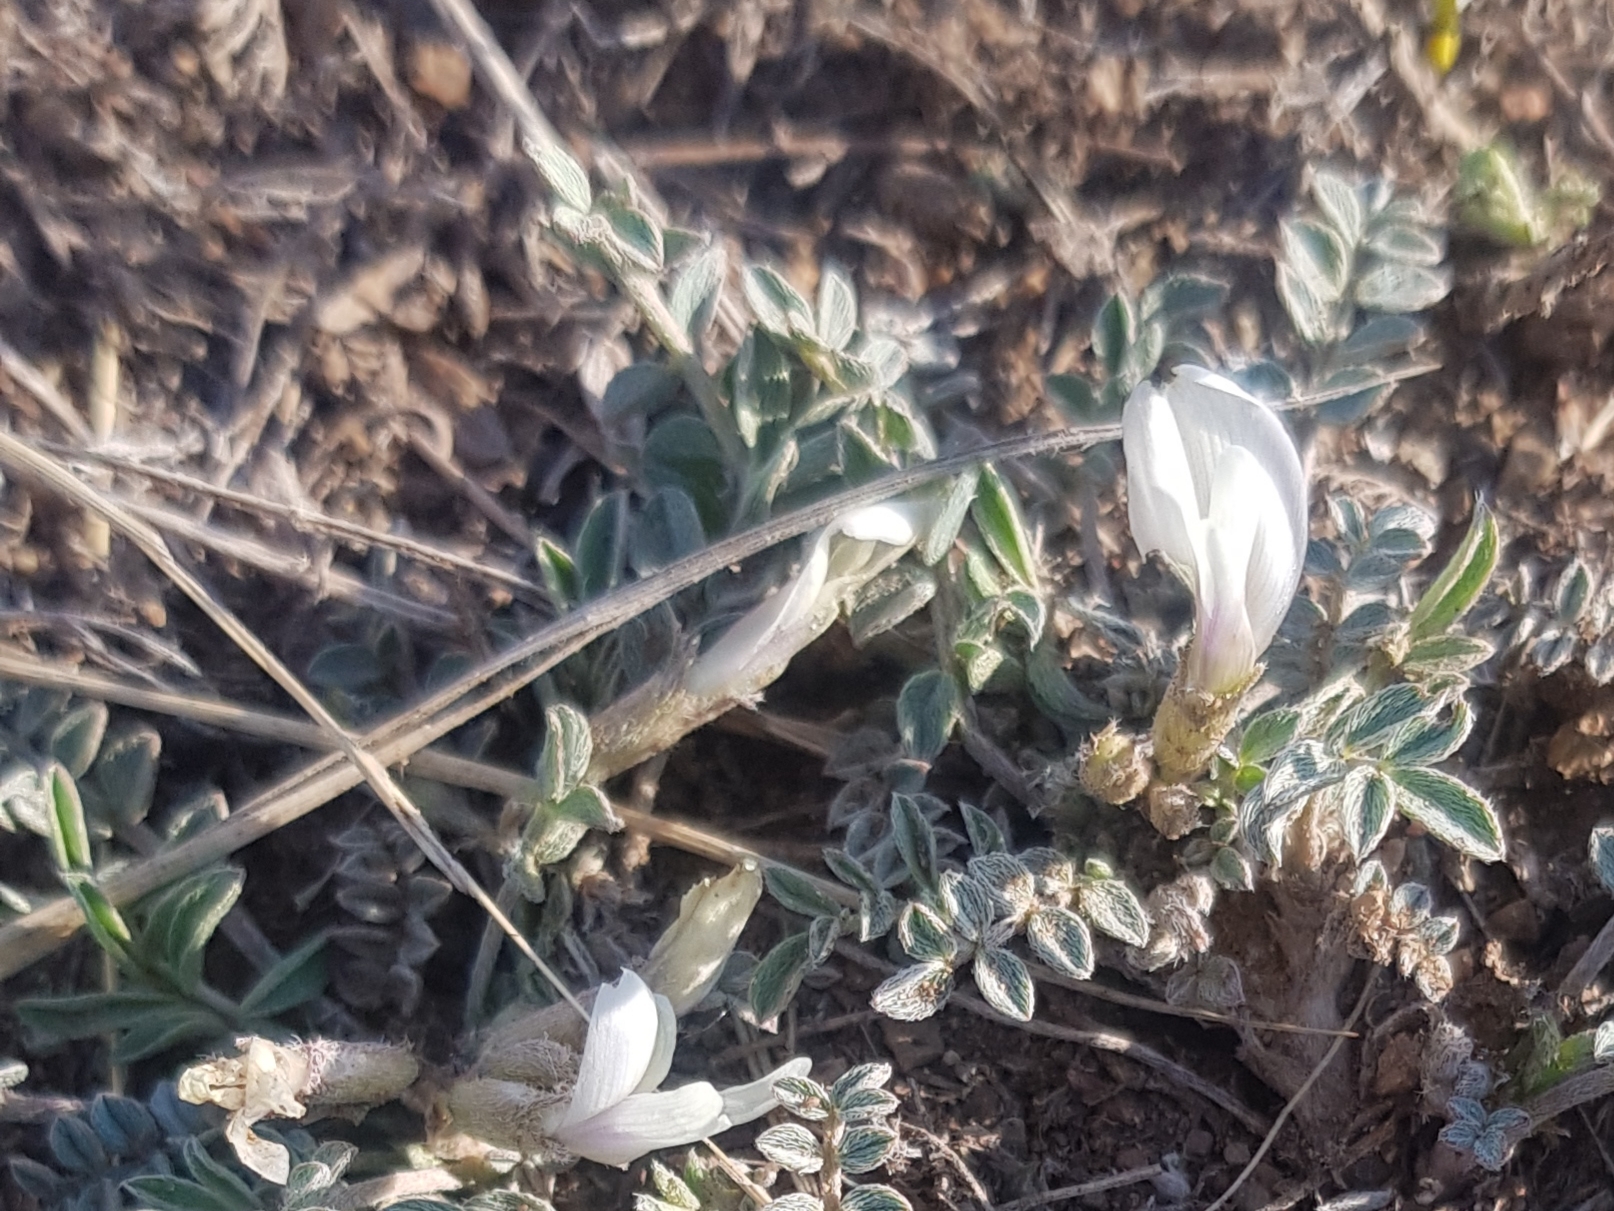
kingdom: Plantae
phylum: Tracheophyta
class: Magnoliopsida
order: Fabales
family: Fabaceae
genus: Astragalus
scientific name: Astragalus scaberrimus
